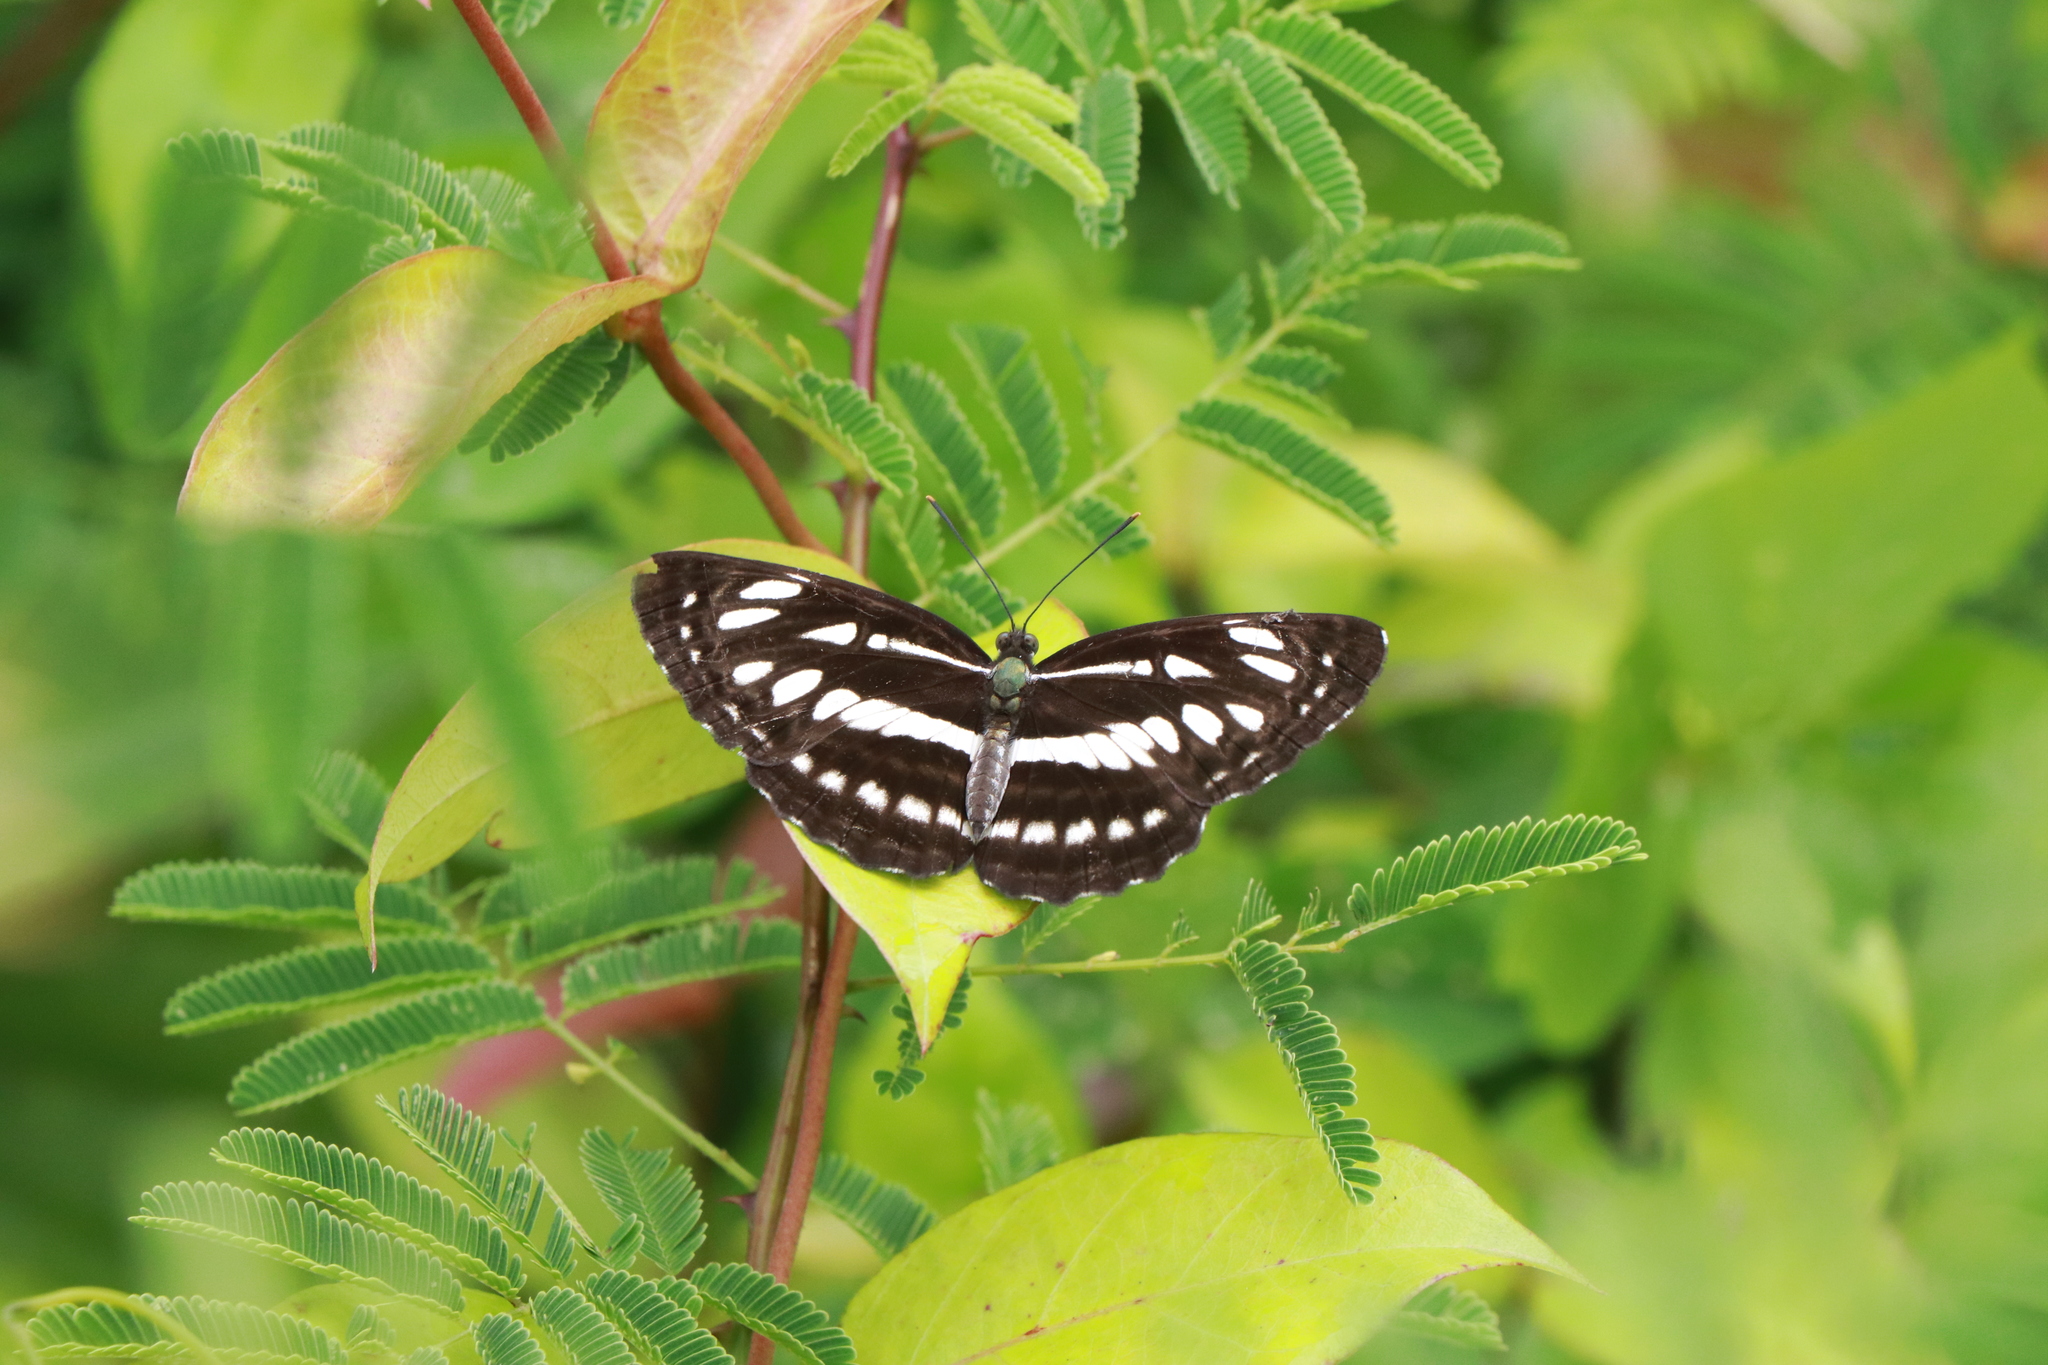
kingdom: Animalia
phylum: Arthropoda
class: Insecta
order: Lepidoptera
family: Nymphalidae
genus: Neptis
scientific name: Neptis hylas
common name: Common sailer
